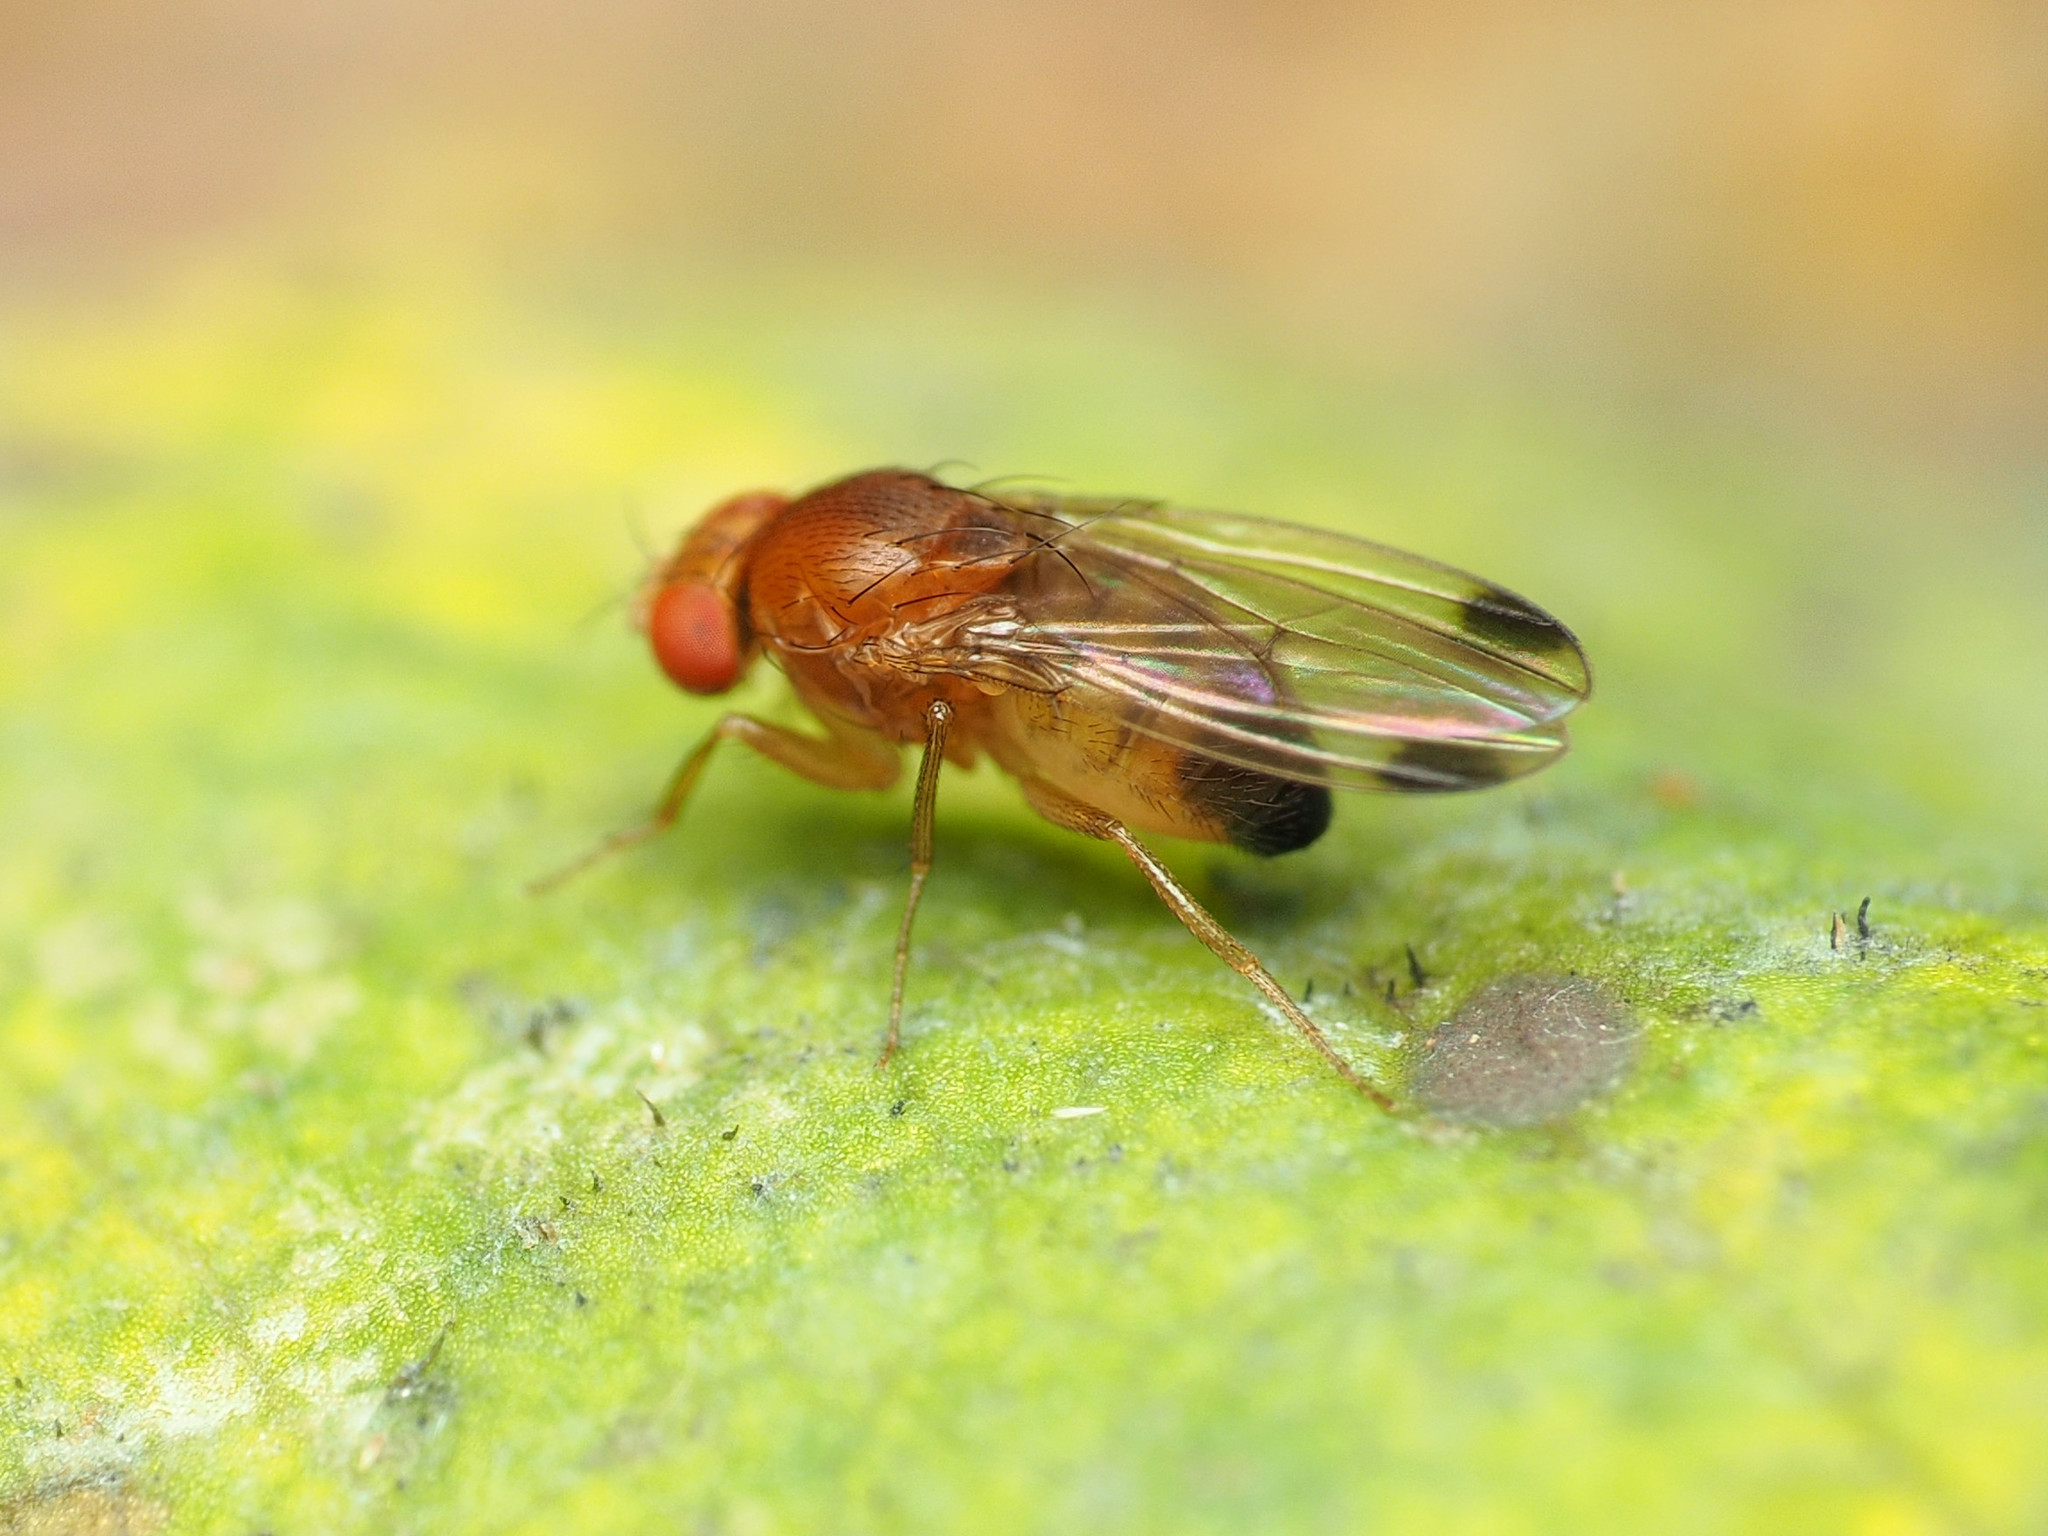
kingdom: Animalia
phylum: Arthropoda
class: Insecta
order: Diptera
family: Drosophilidae
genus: Drosophila
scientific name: Drosophila suzukii
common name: Spotted-wing drosophila
